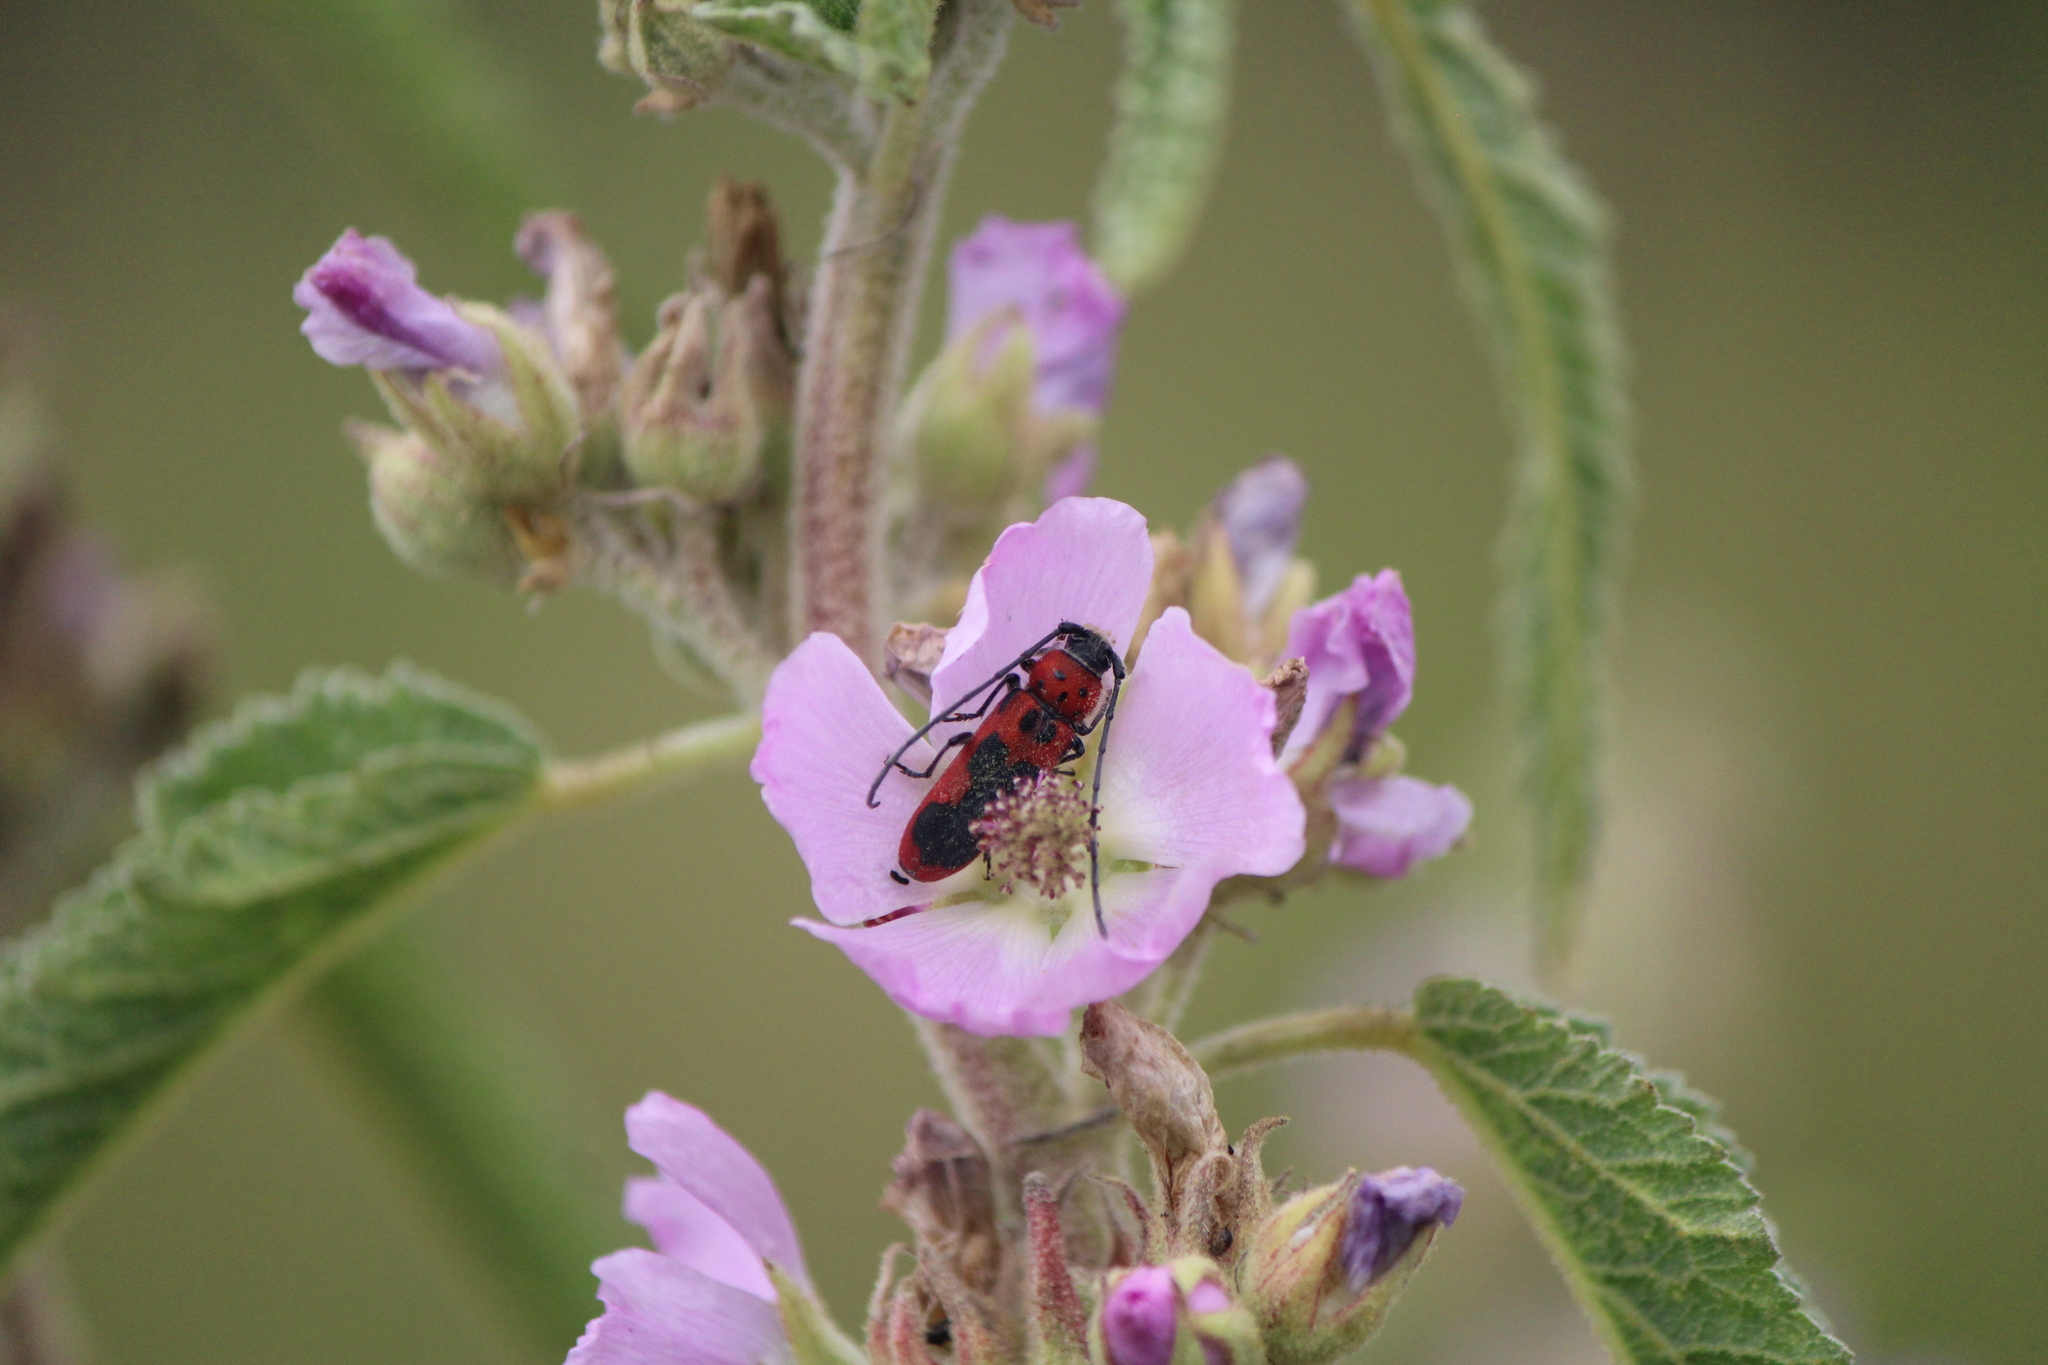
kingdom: Animalia
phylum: Arthropoda
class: Insecta
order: Coleoptera
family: Cerambycidae
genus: Tylosis
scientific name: Tylosis jimenezi
